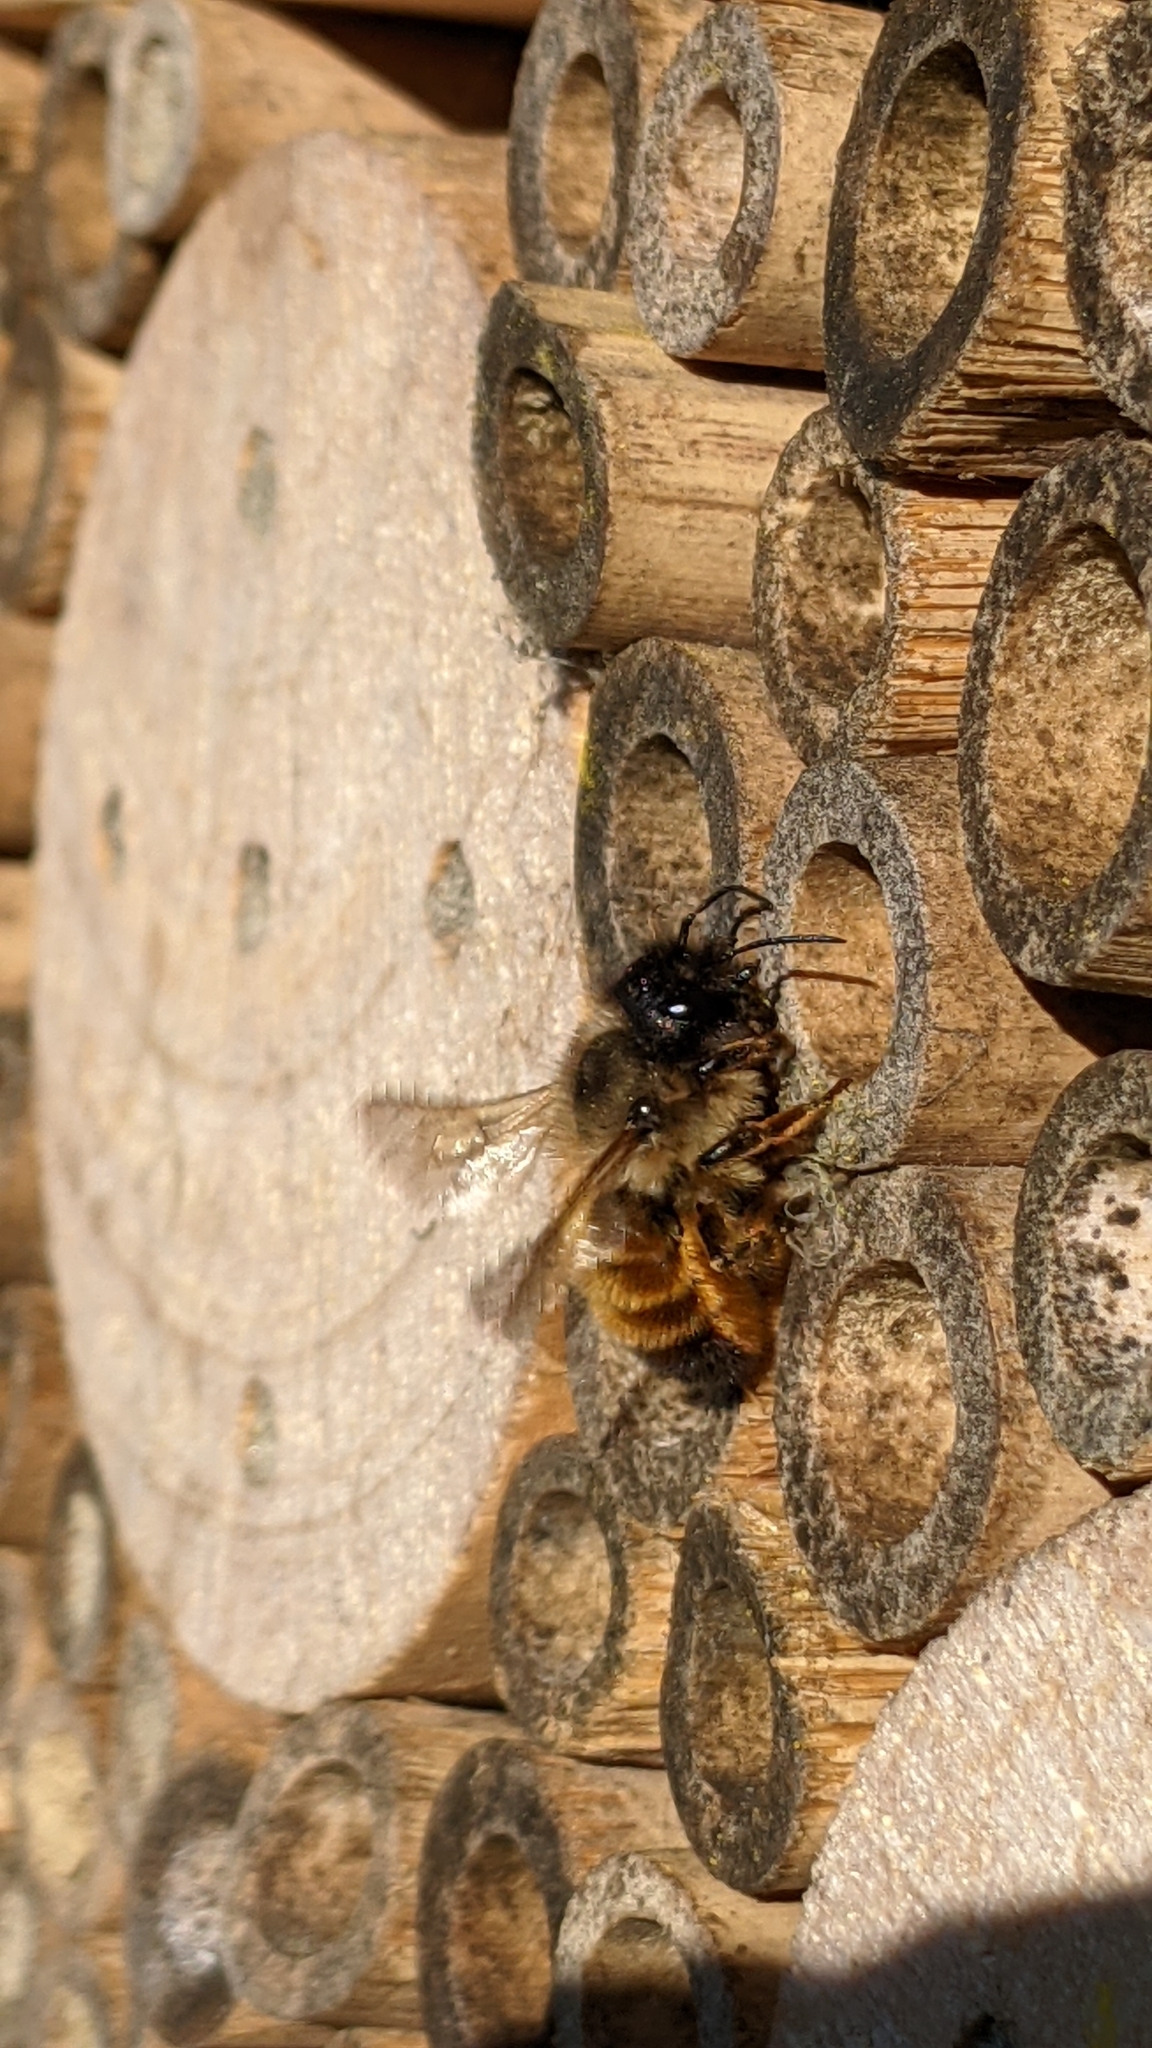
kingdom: Animalia
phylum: Arthropoda
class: Insecta
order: Hymenoptera
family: Megachilidae
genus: Osmia
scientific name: Osmia bicornis
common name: Red mason bee
